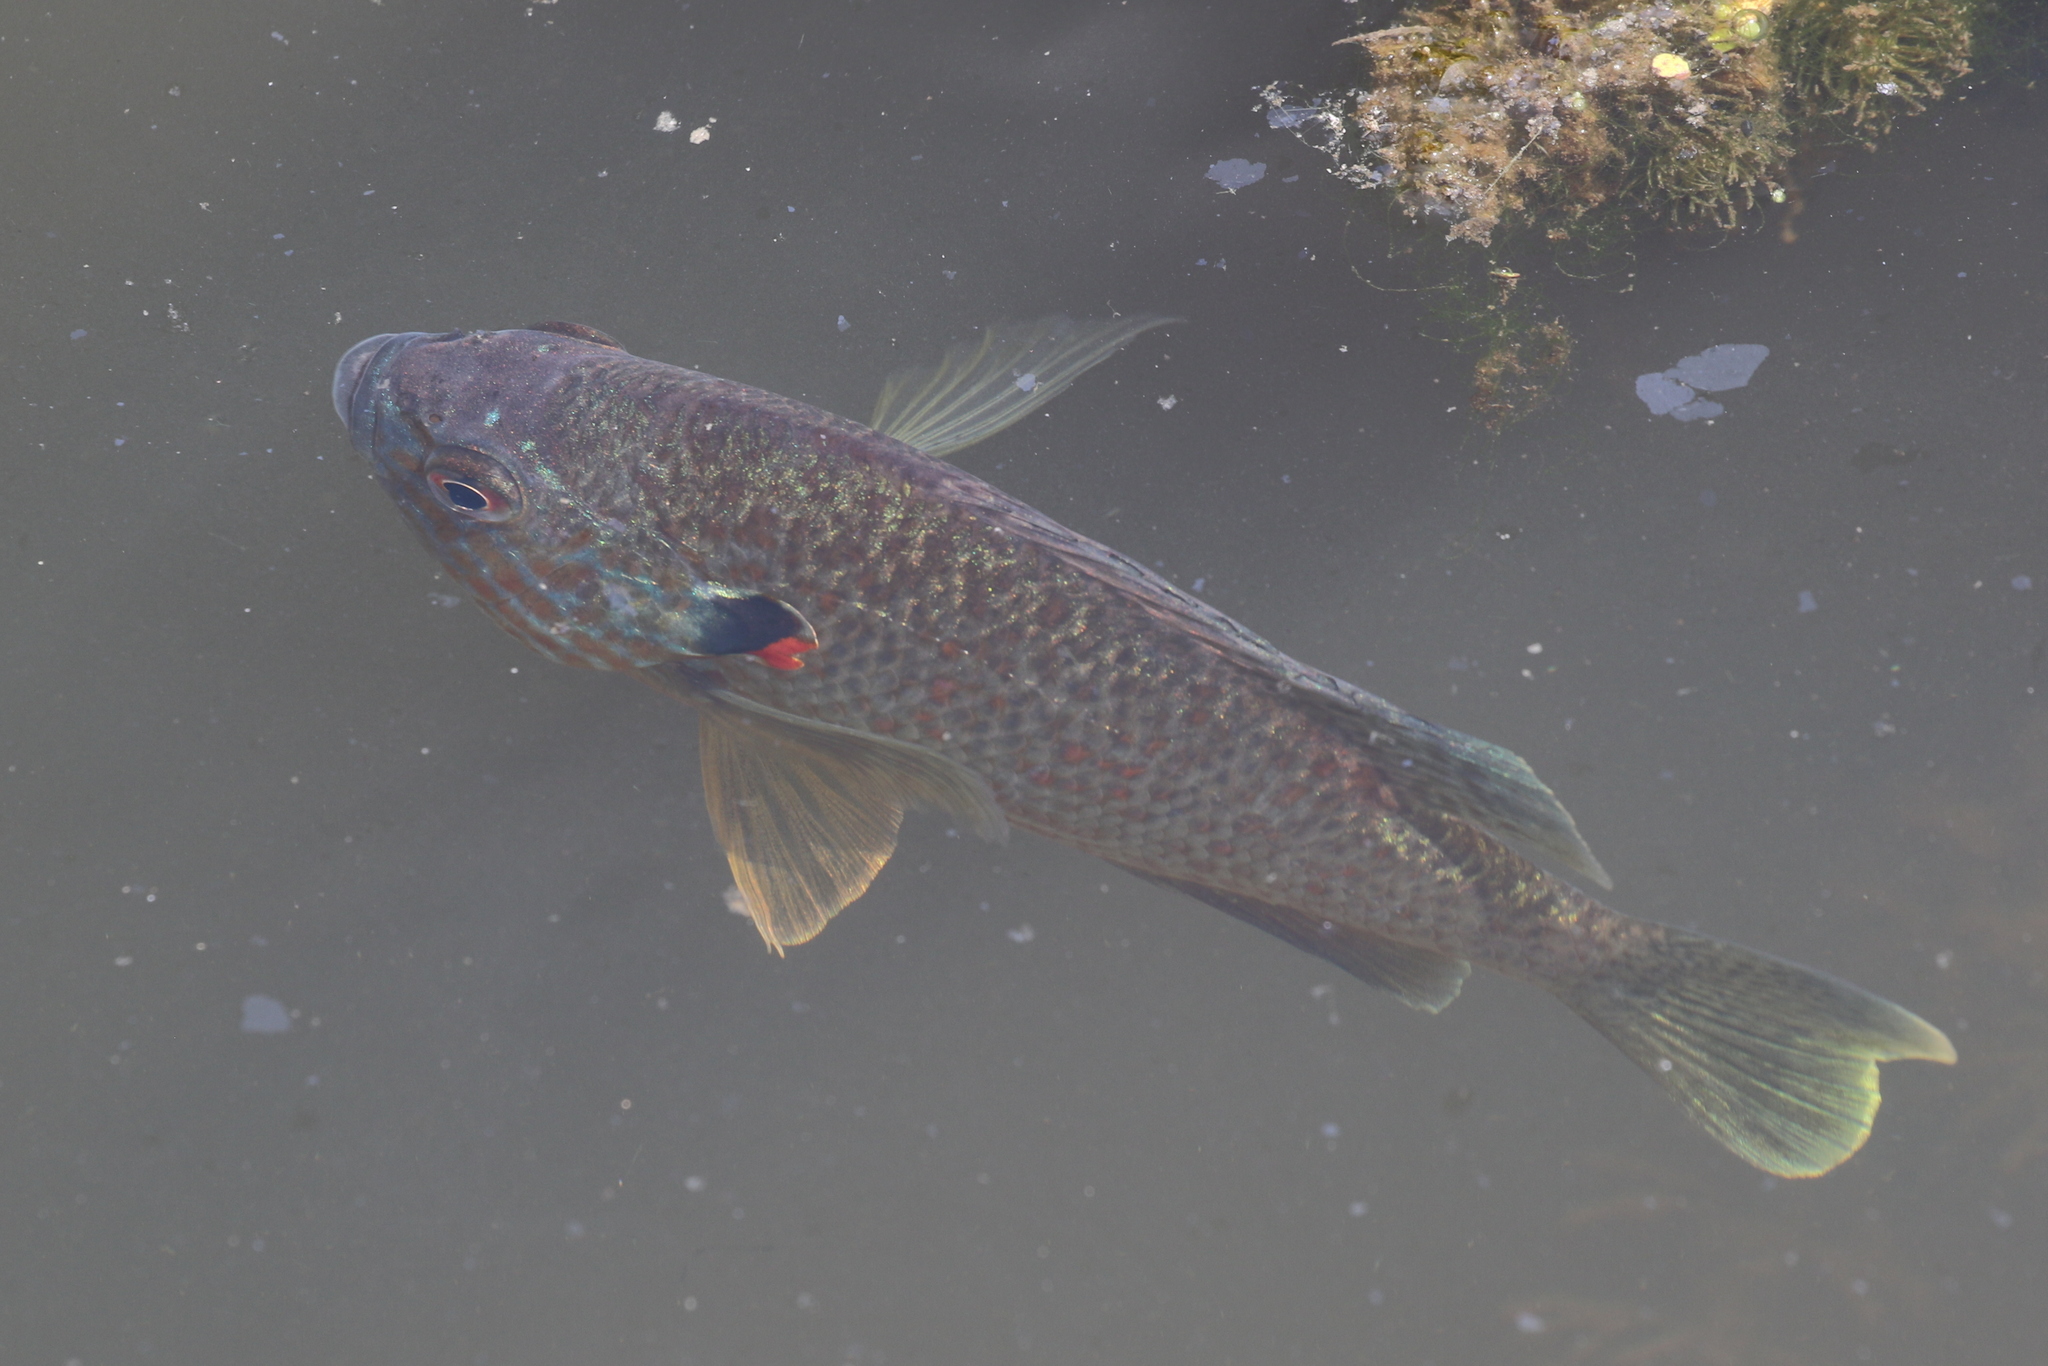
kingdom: Animalia
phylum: Chordata
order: Perciformes
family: Centrarchidae
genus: Lepomis
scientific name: Lepomis gibbosus
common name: Pumpkinseed
